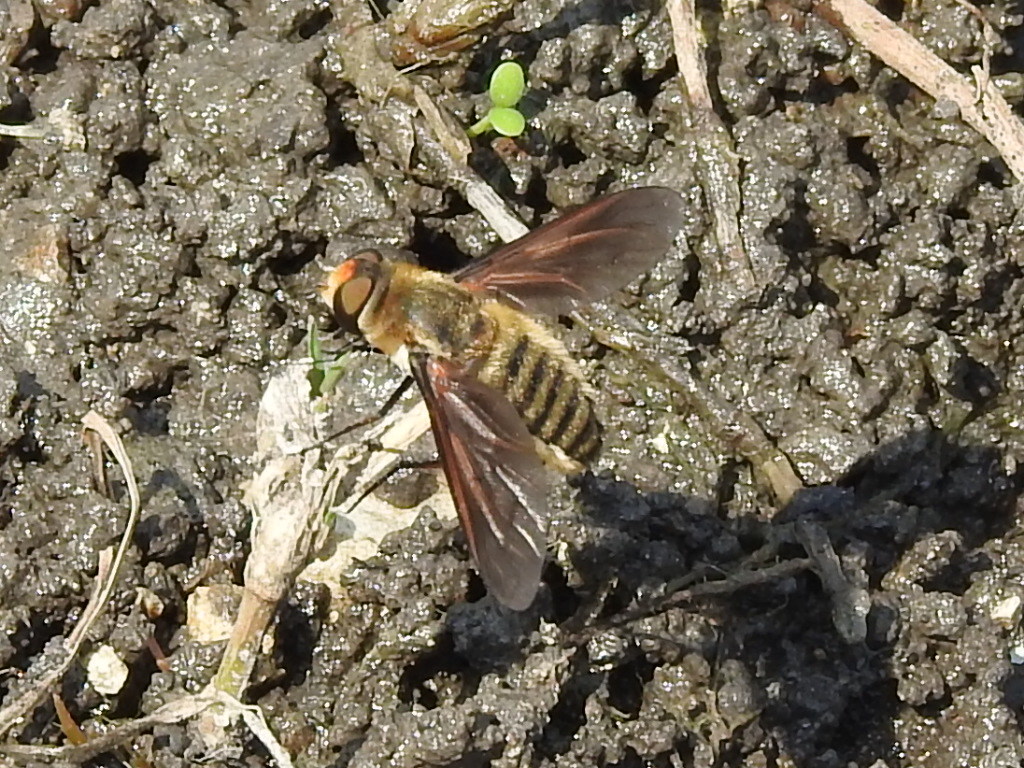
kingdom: Animalia
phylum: Arthropoda
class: Insecta
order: Diptera
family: Bombyliidae
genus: Poecilanthrax
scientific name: Poecilanthrax lucifer
